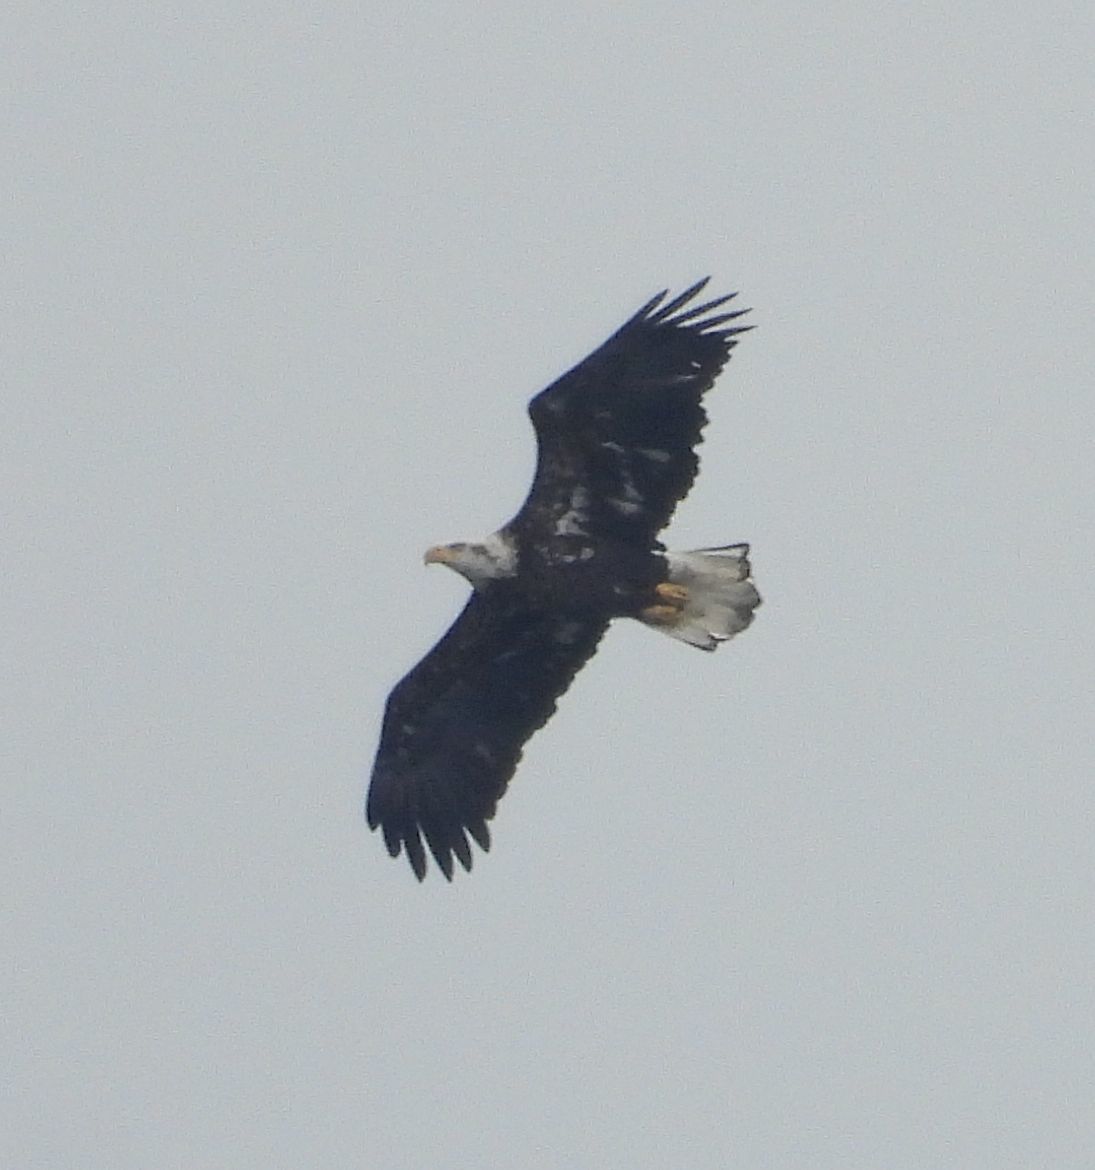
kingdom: Animalia
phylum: Chordata
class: Aves
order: Accipitriformes
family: Accipitridae
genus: Haliaeetus
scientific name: Haliaeetus leucocephalus
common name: Bald eagle
